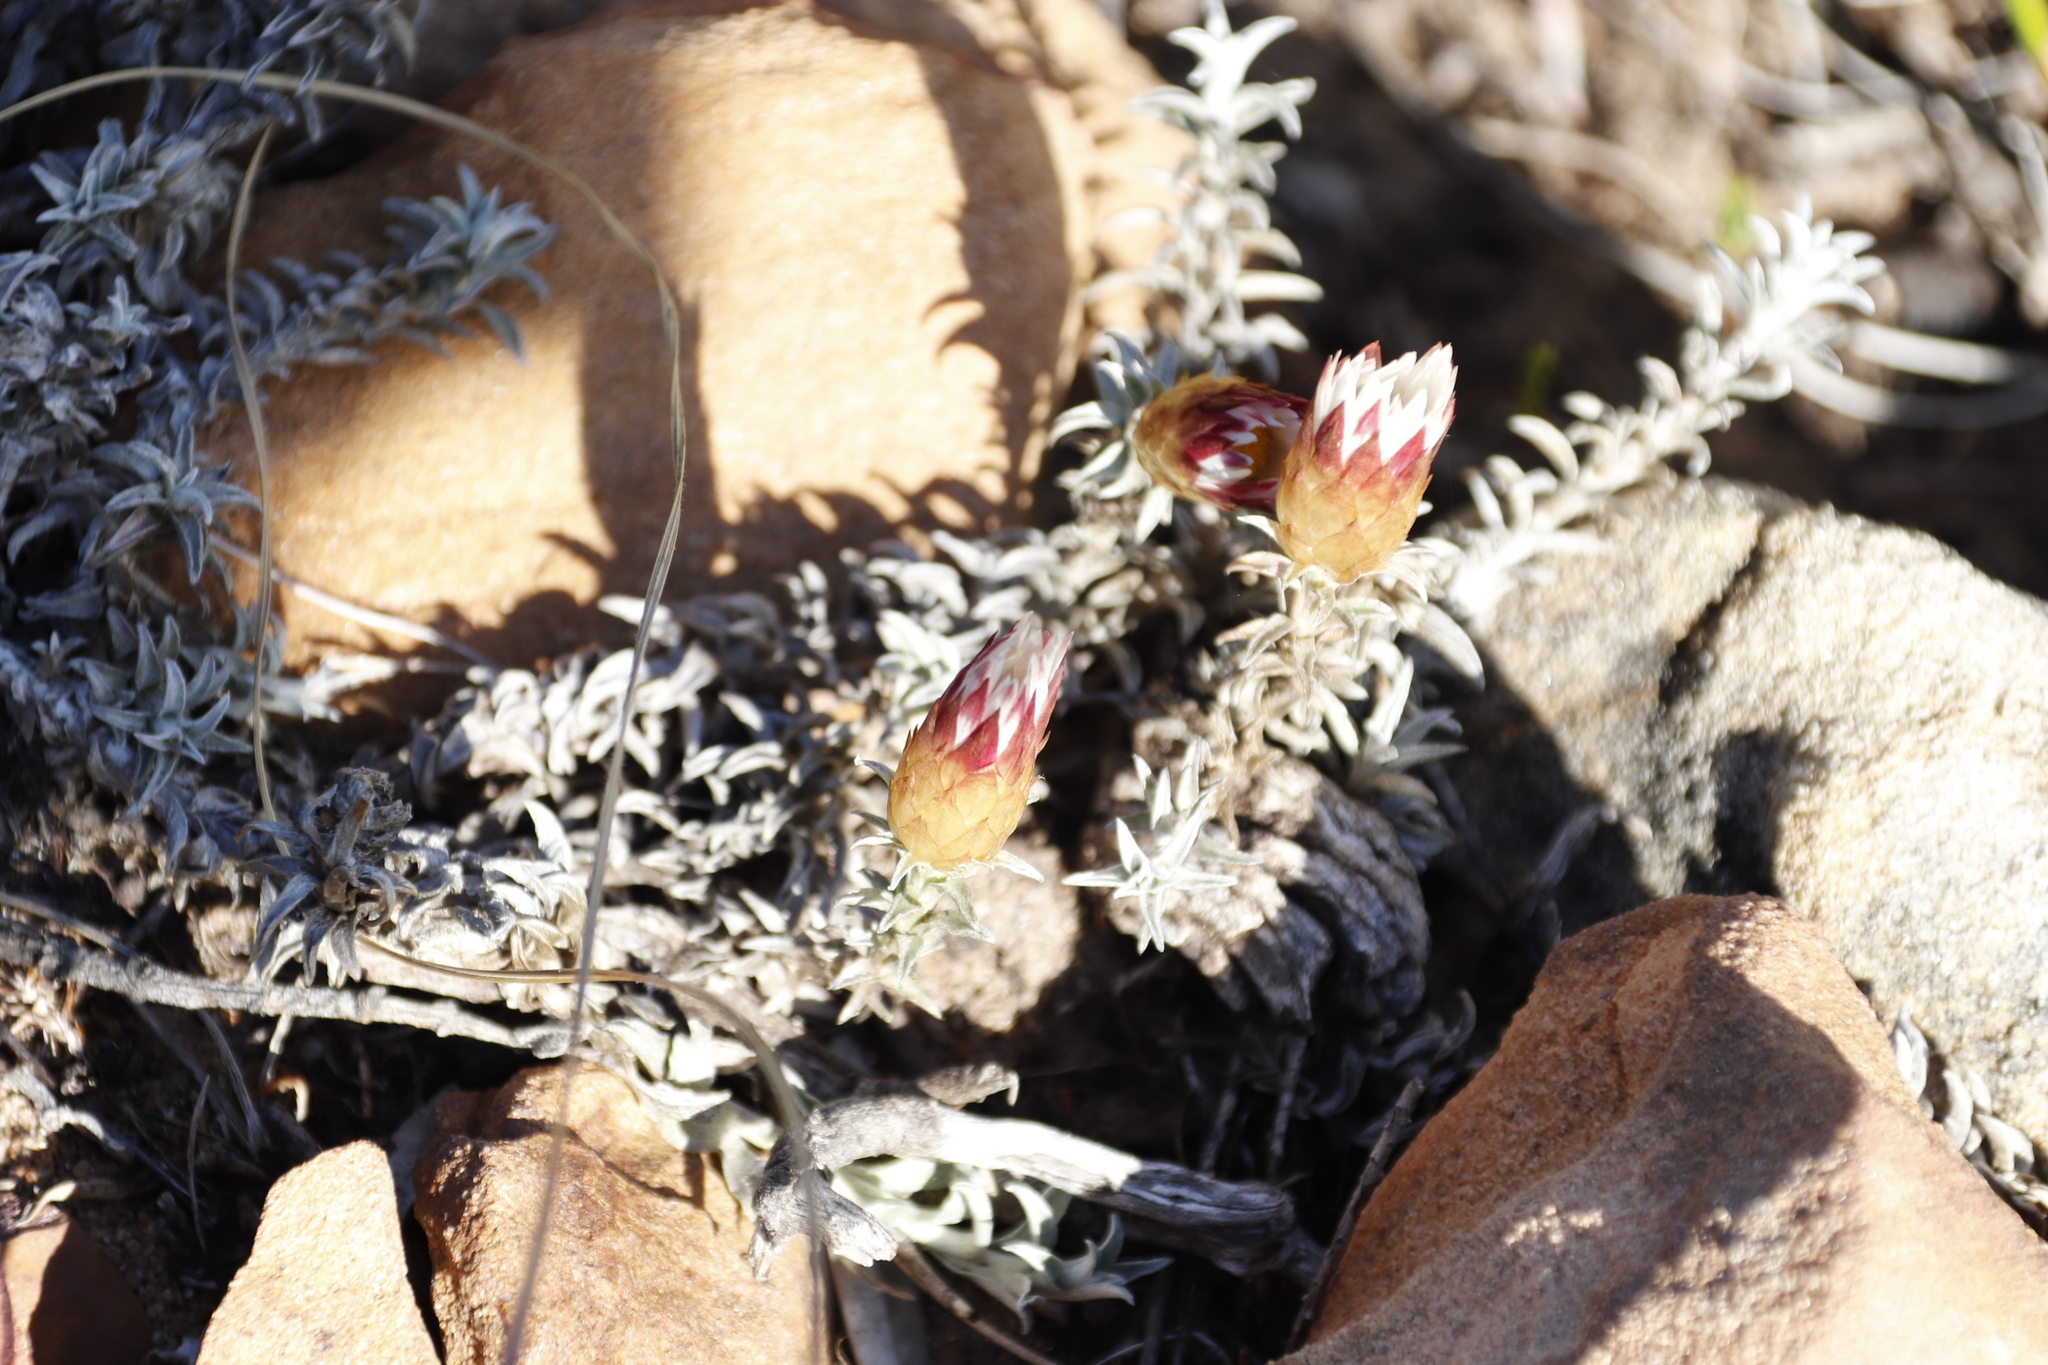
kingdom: Plantae
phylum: Tracheophyta
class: Magnoliopsida
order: Asterales
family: Asteraceae
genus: Helichrysum
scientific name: Helichrysum retortum
